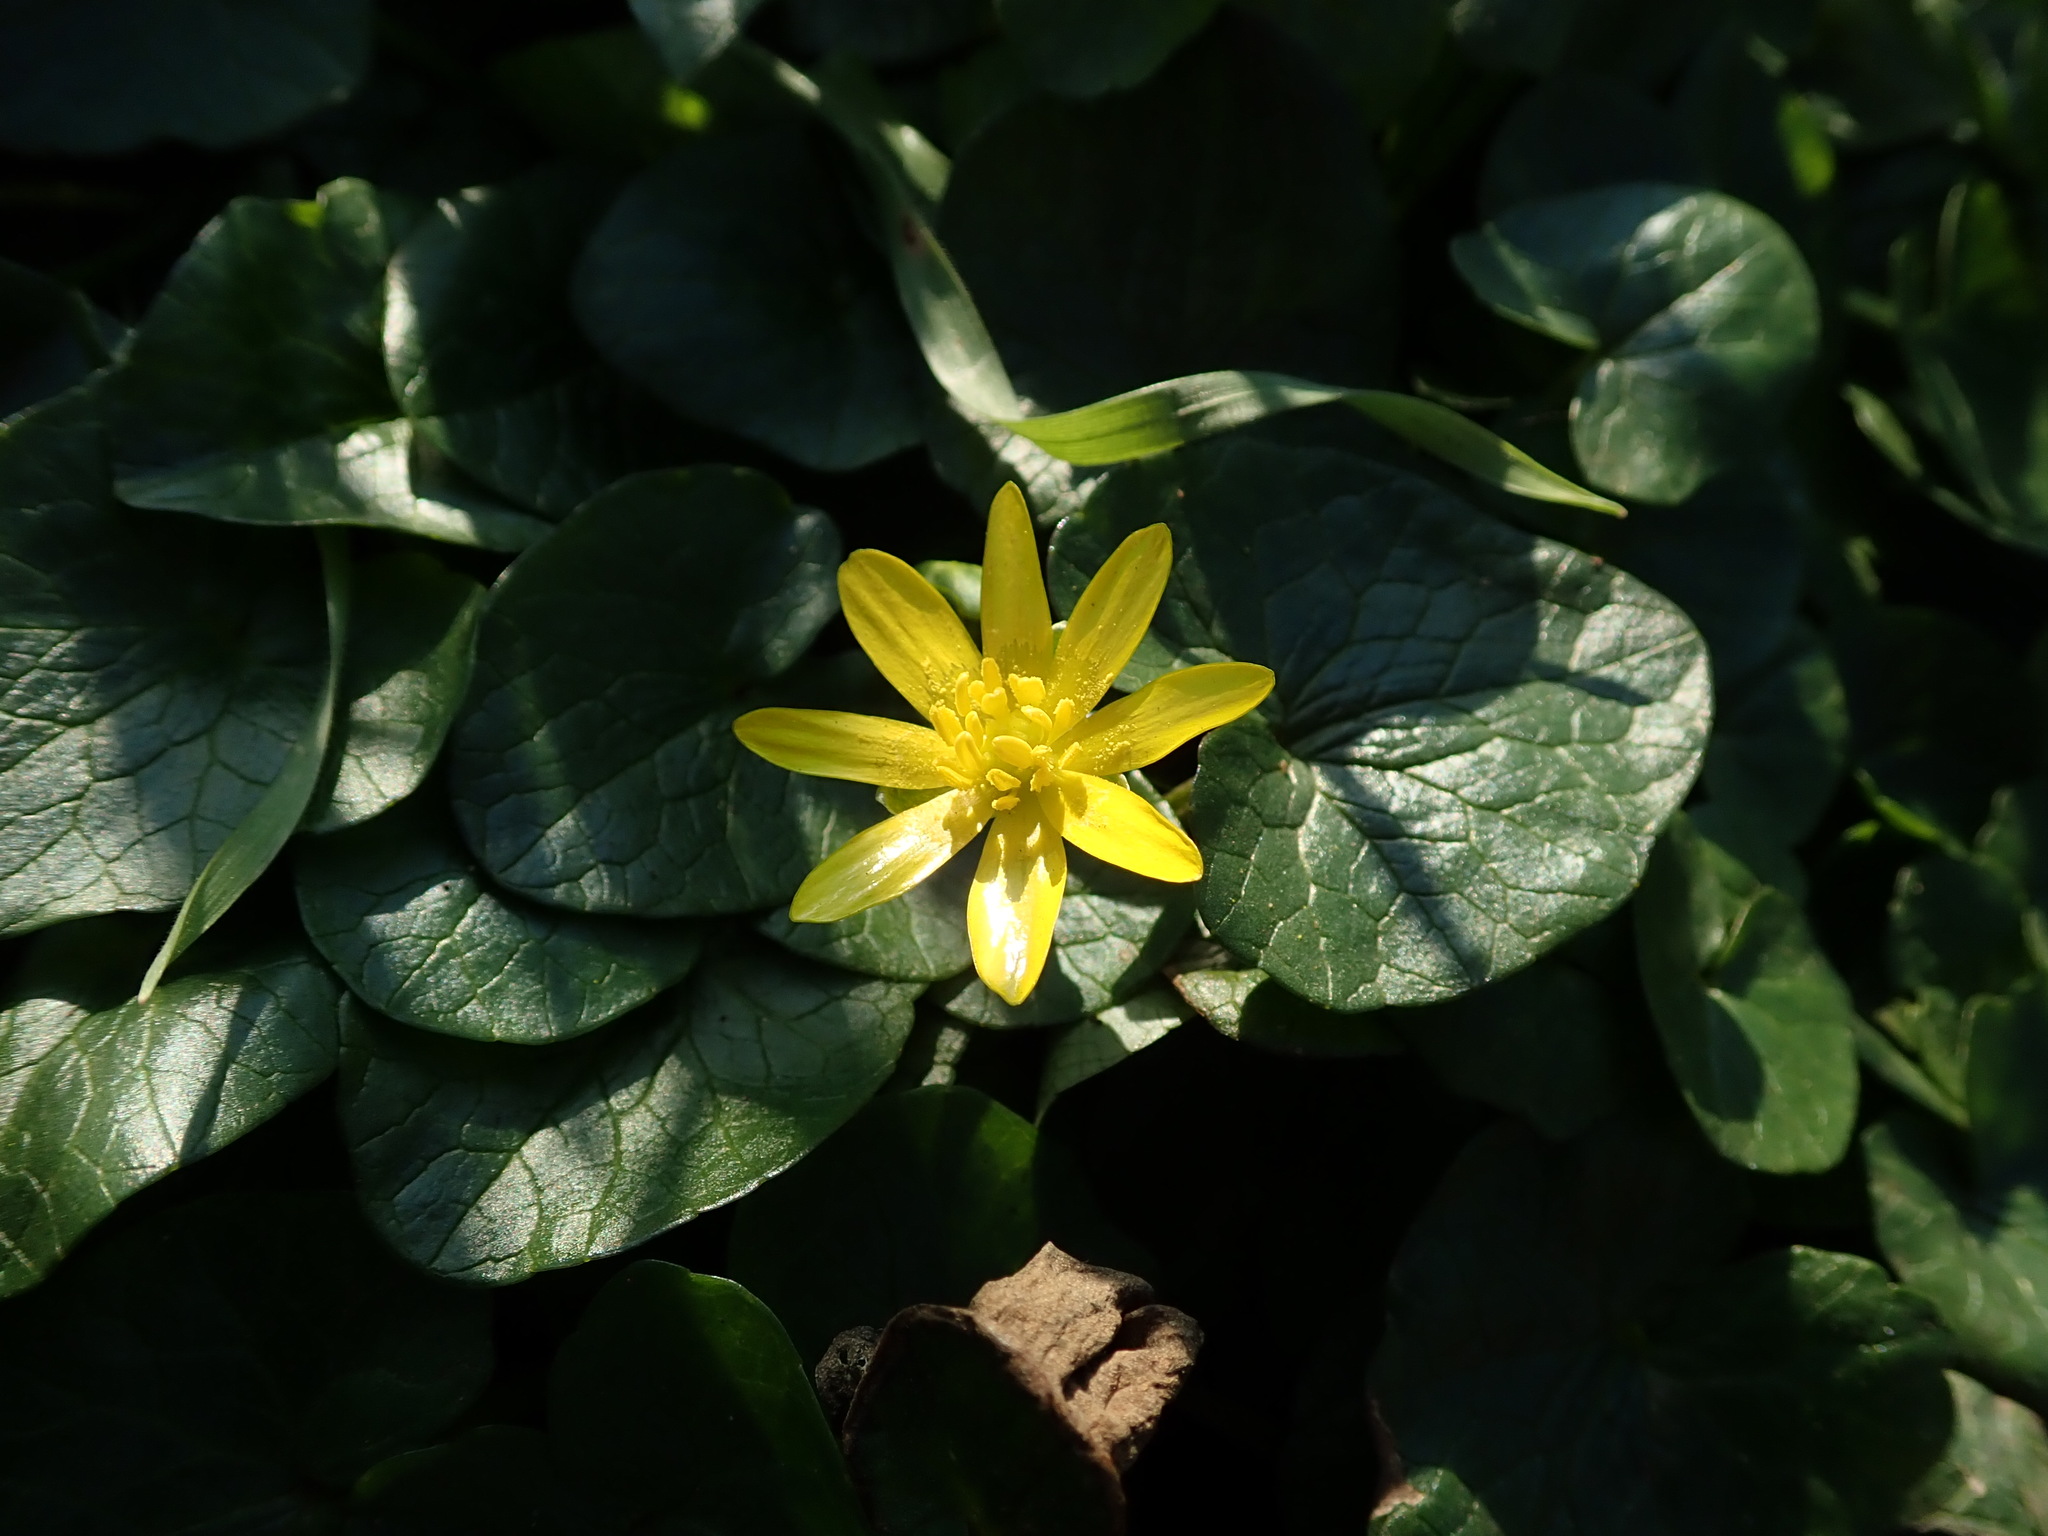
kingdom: Plantae
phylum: Tracheophyta
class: Magnoliopsida
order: Ranunculales
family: Ranunculaceae
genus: Ficaria
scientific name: Ficaria verna
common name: Lesser celandine
